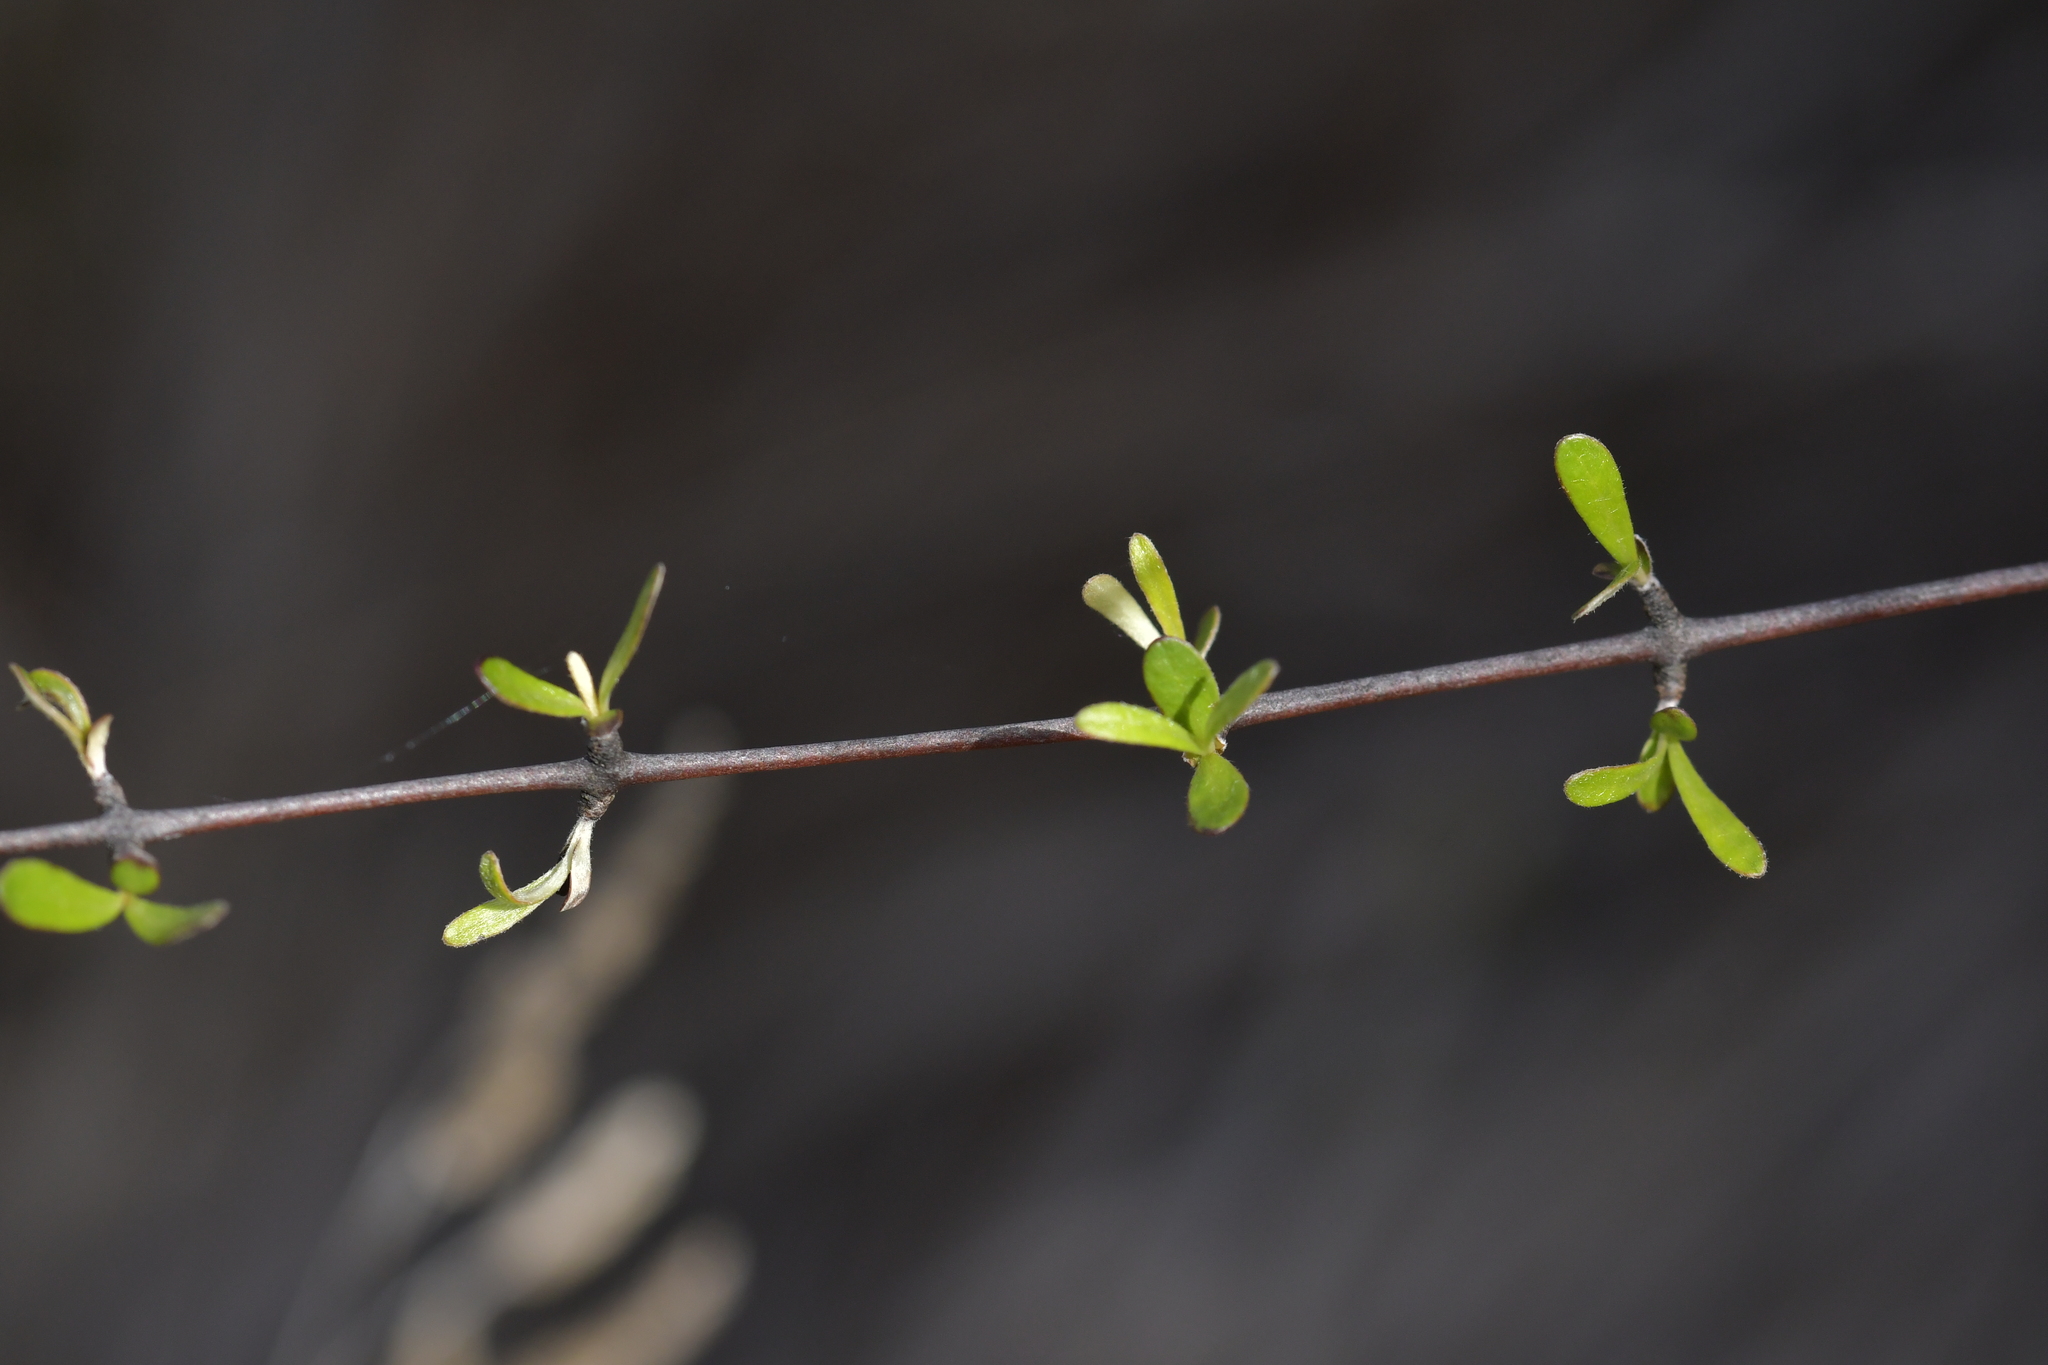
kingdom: Plantae
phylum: Tracheophyta
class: Magnoliopsida
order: Asterales
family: Asteraceae
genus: Olearia
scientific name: Olearia odorata
